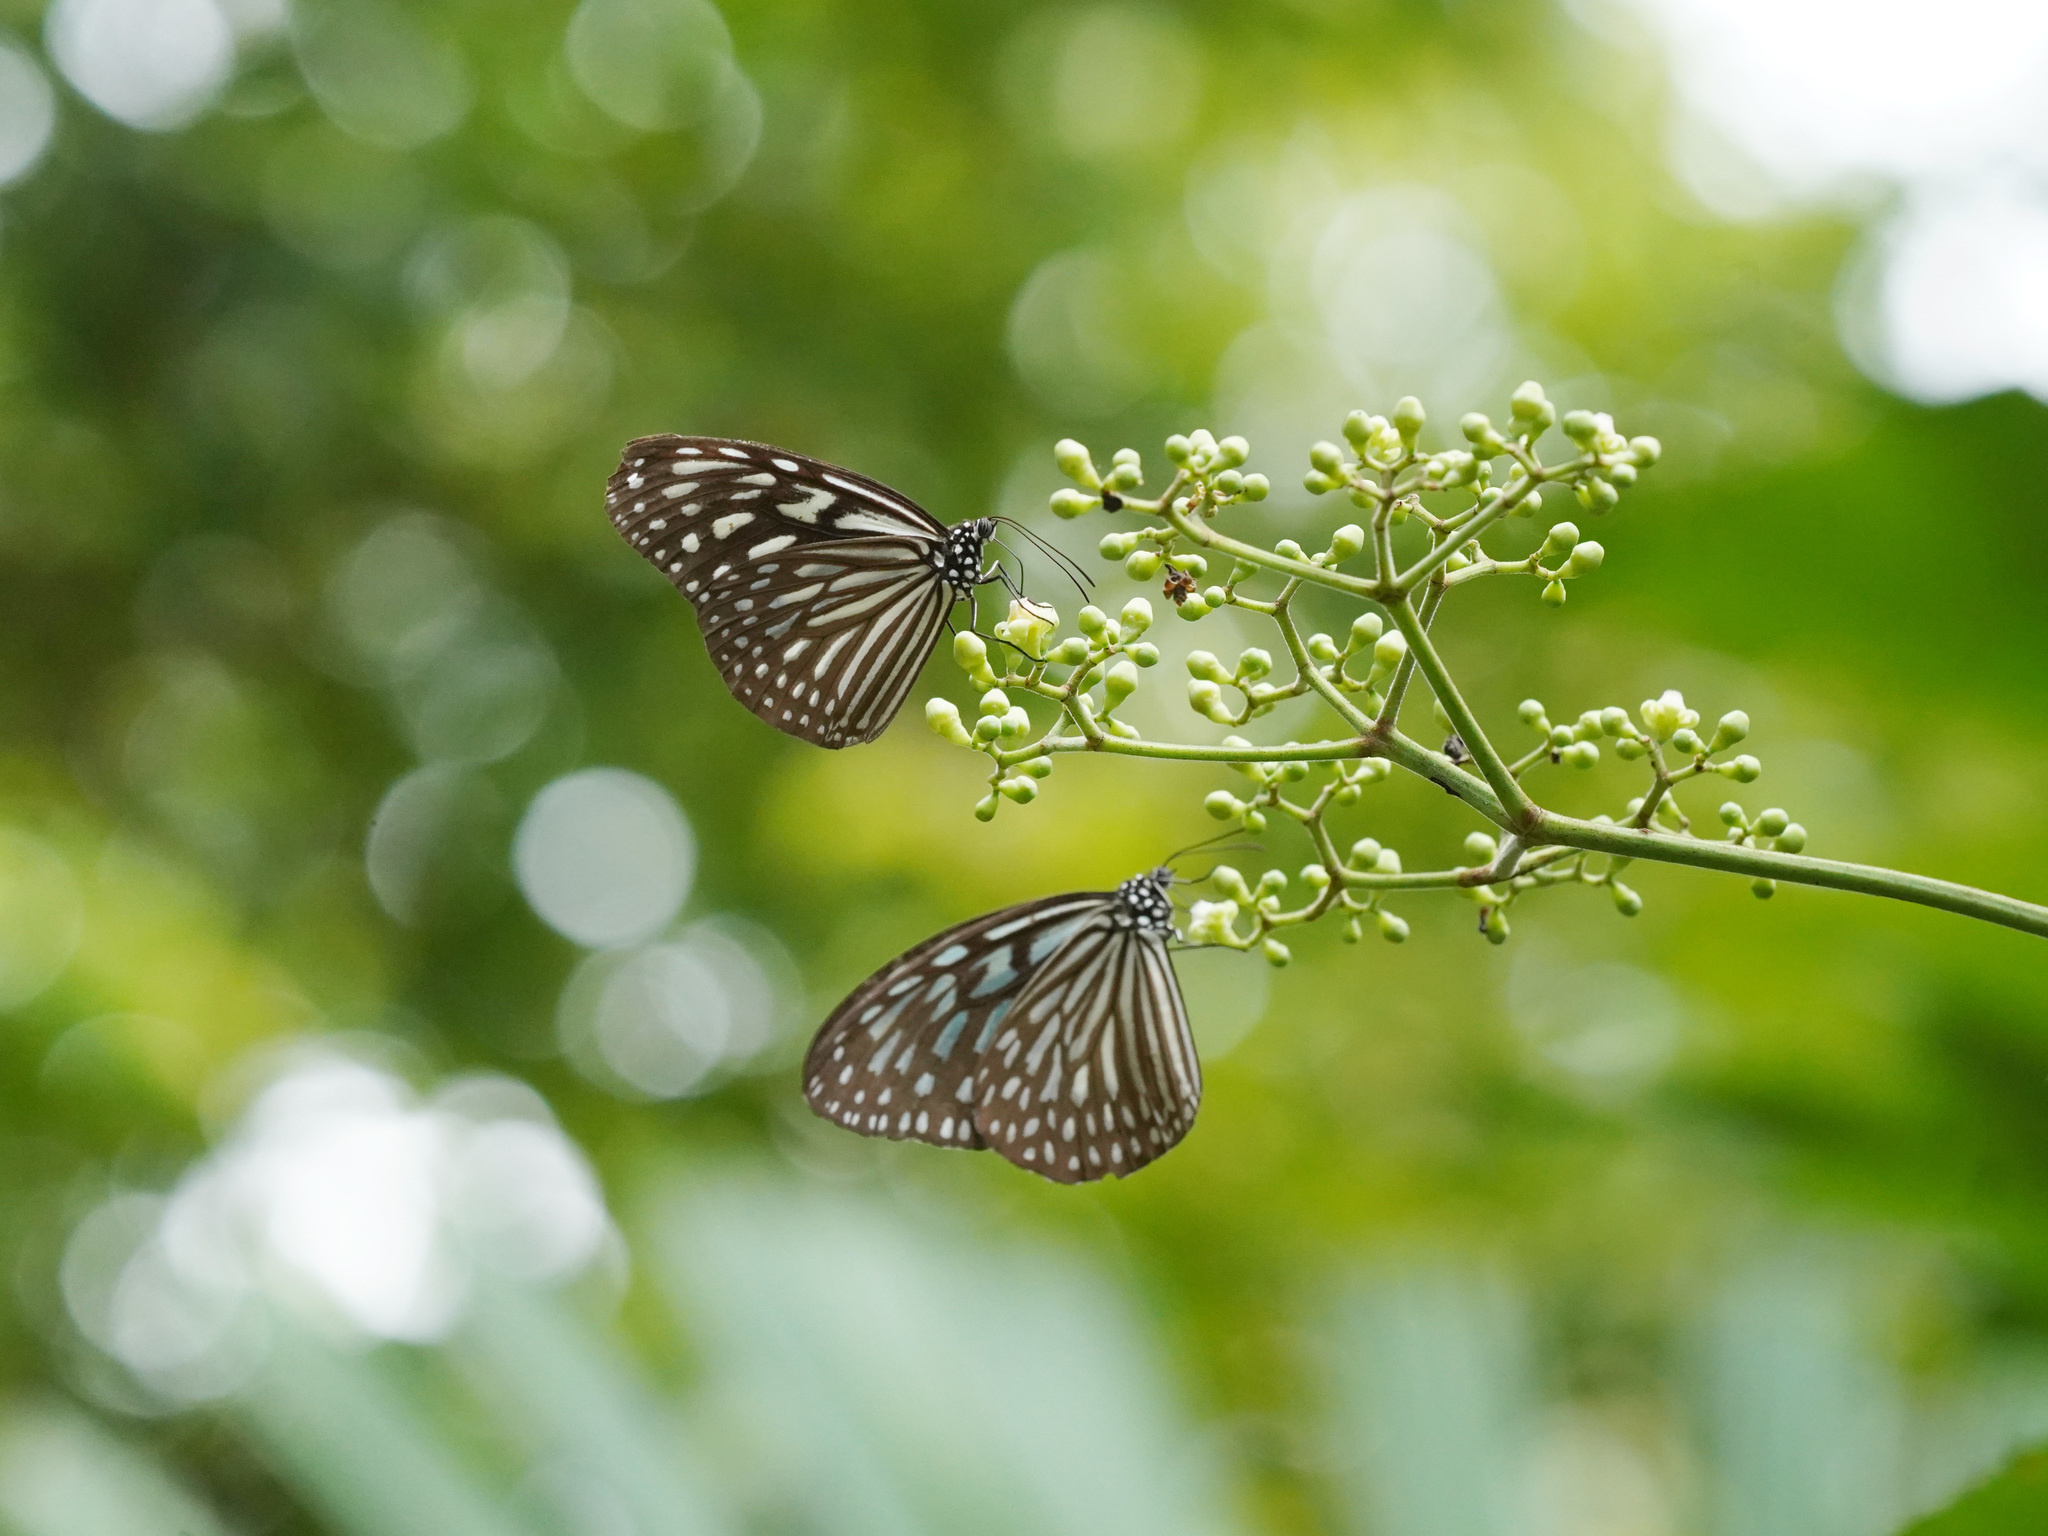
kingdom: Animalia
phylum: Arthropoda
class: Insecta
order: Lepidoptera
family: Nymphalidae
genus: Ideopsis
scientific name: Ideopsis vulgaris
